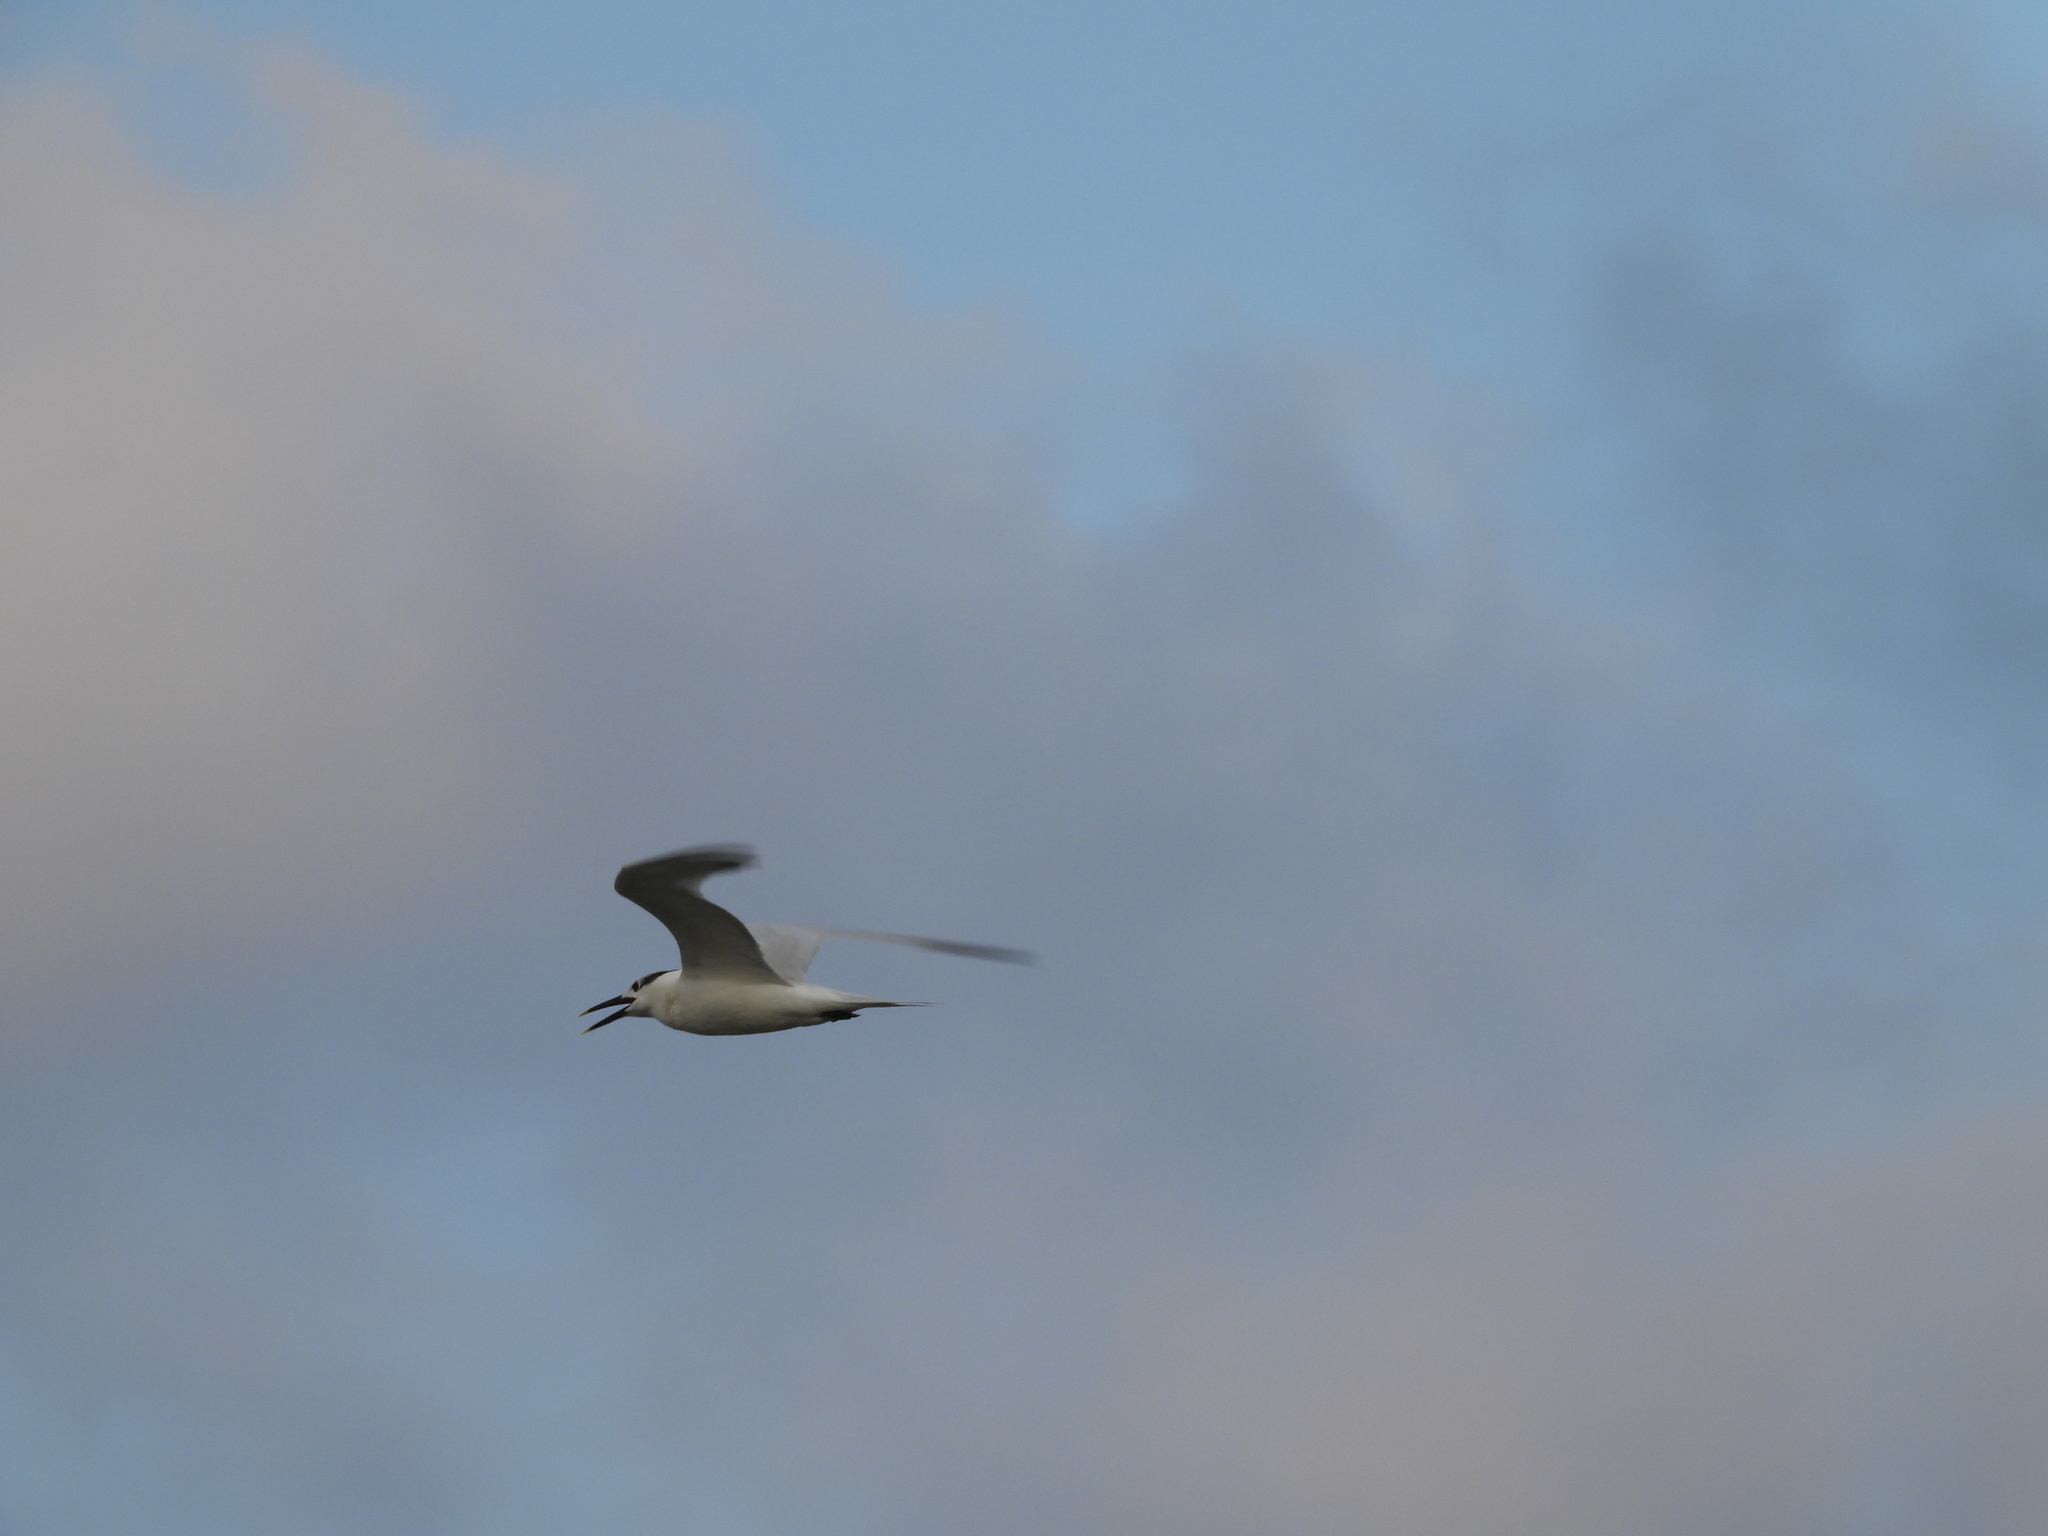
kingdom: Animalia
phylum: Chordata
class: Aves
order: Charadriiformes
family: Laridae
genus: Thalasseus
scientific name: Thalasseus sandvicensis
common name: Sandwich tern
